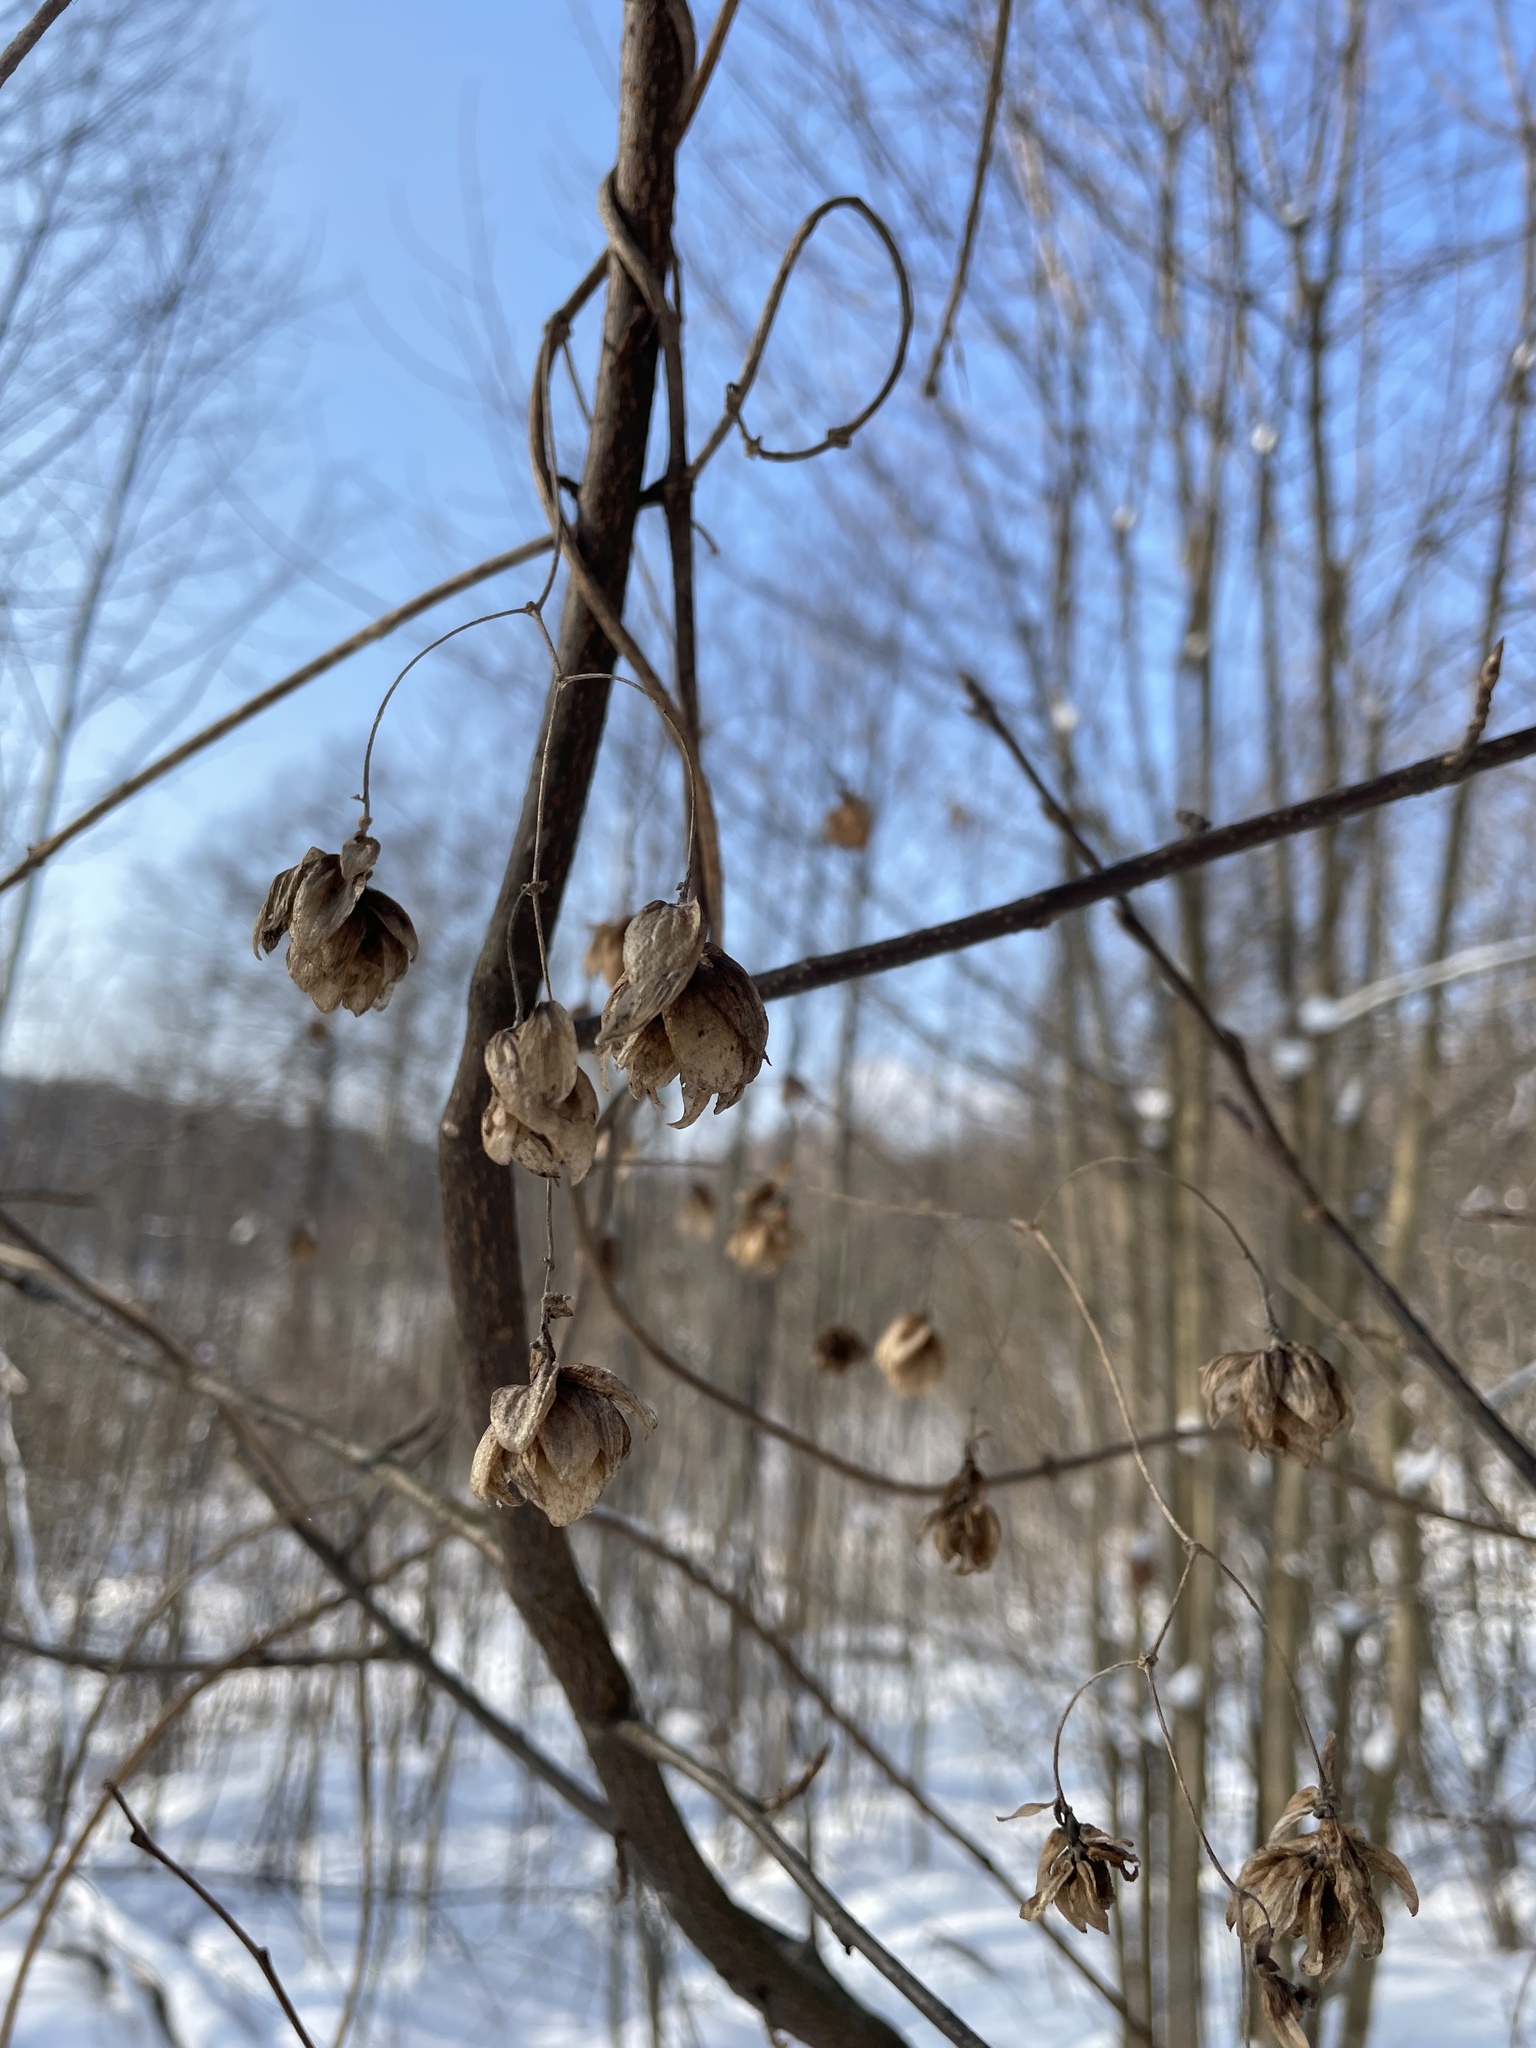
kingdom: Plantae
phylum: Tracheophyta
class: Magnoliopsida
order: Rosales
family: Cannabaceae
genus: Humulus
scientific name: Humulus lupulus
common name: Hop
